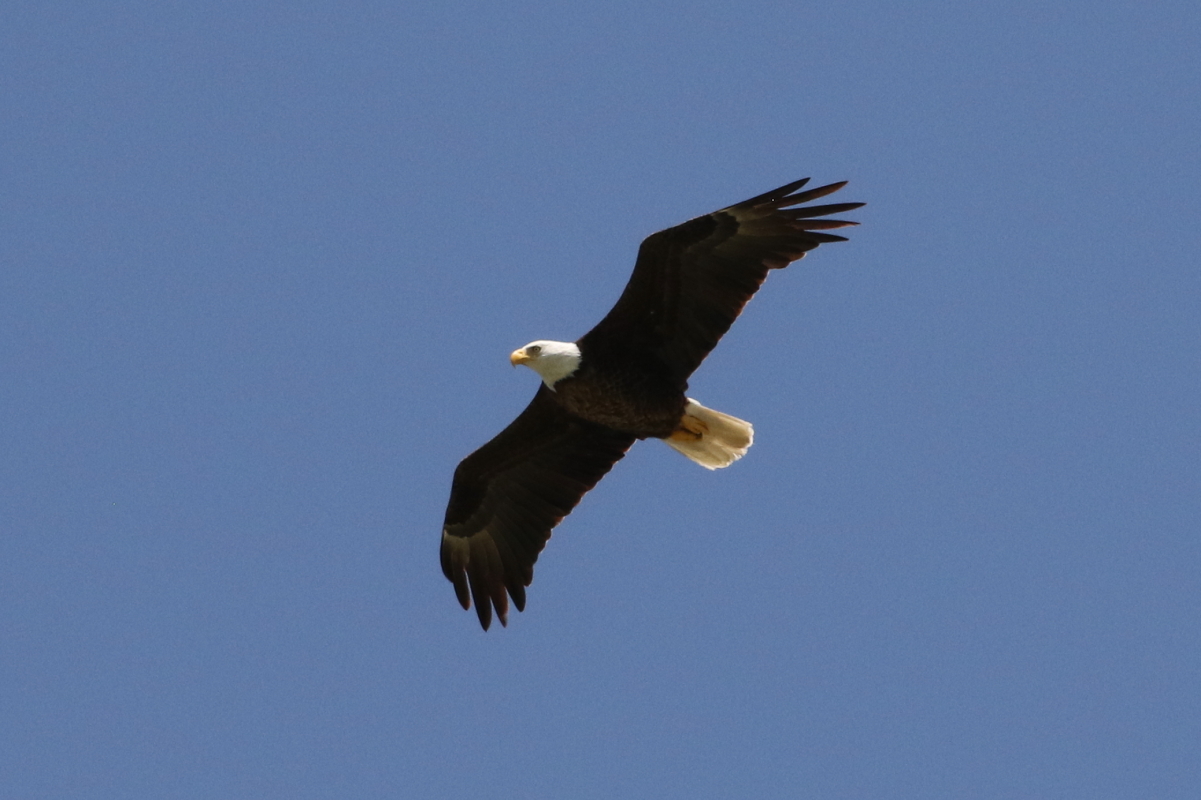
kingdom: Animalia
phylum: Chordata
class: Aves
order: Accipitriformes
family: Accipitridae
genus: Haliaeetus
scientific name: Haliaeetus leucocephalus
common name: Bald eagle
